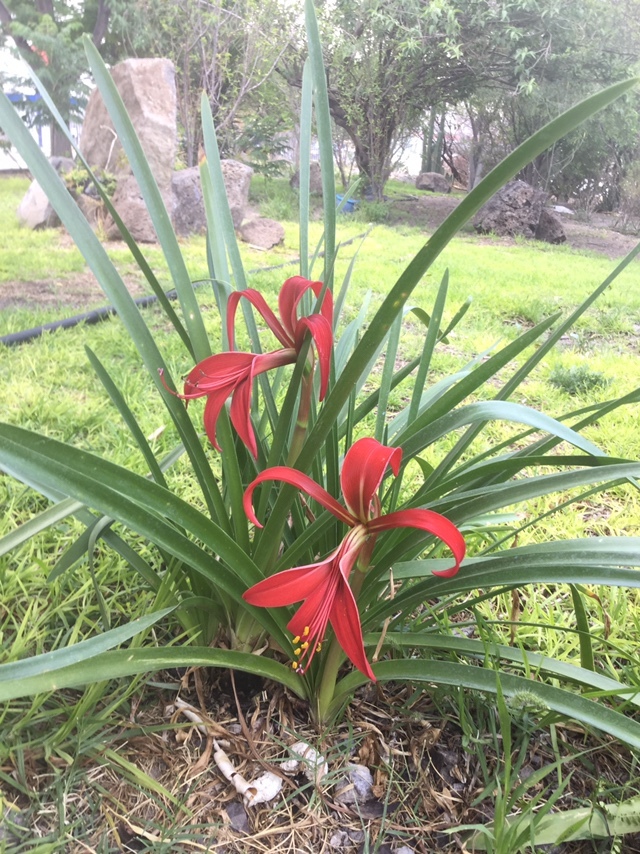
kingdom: Plantae
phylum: Tracheophyta
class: Liliopsida
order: Asparagales
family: Amaryllidaceae
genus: Sprekelia
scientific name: Sprekelia formosissima
